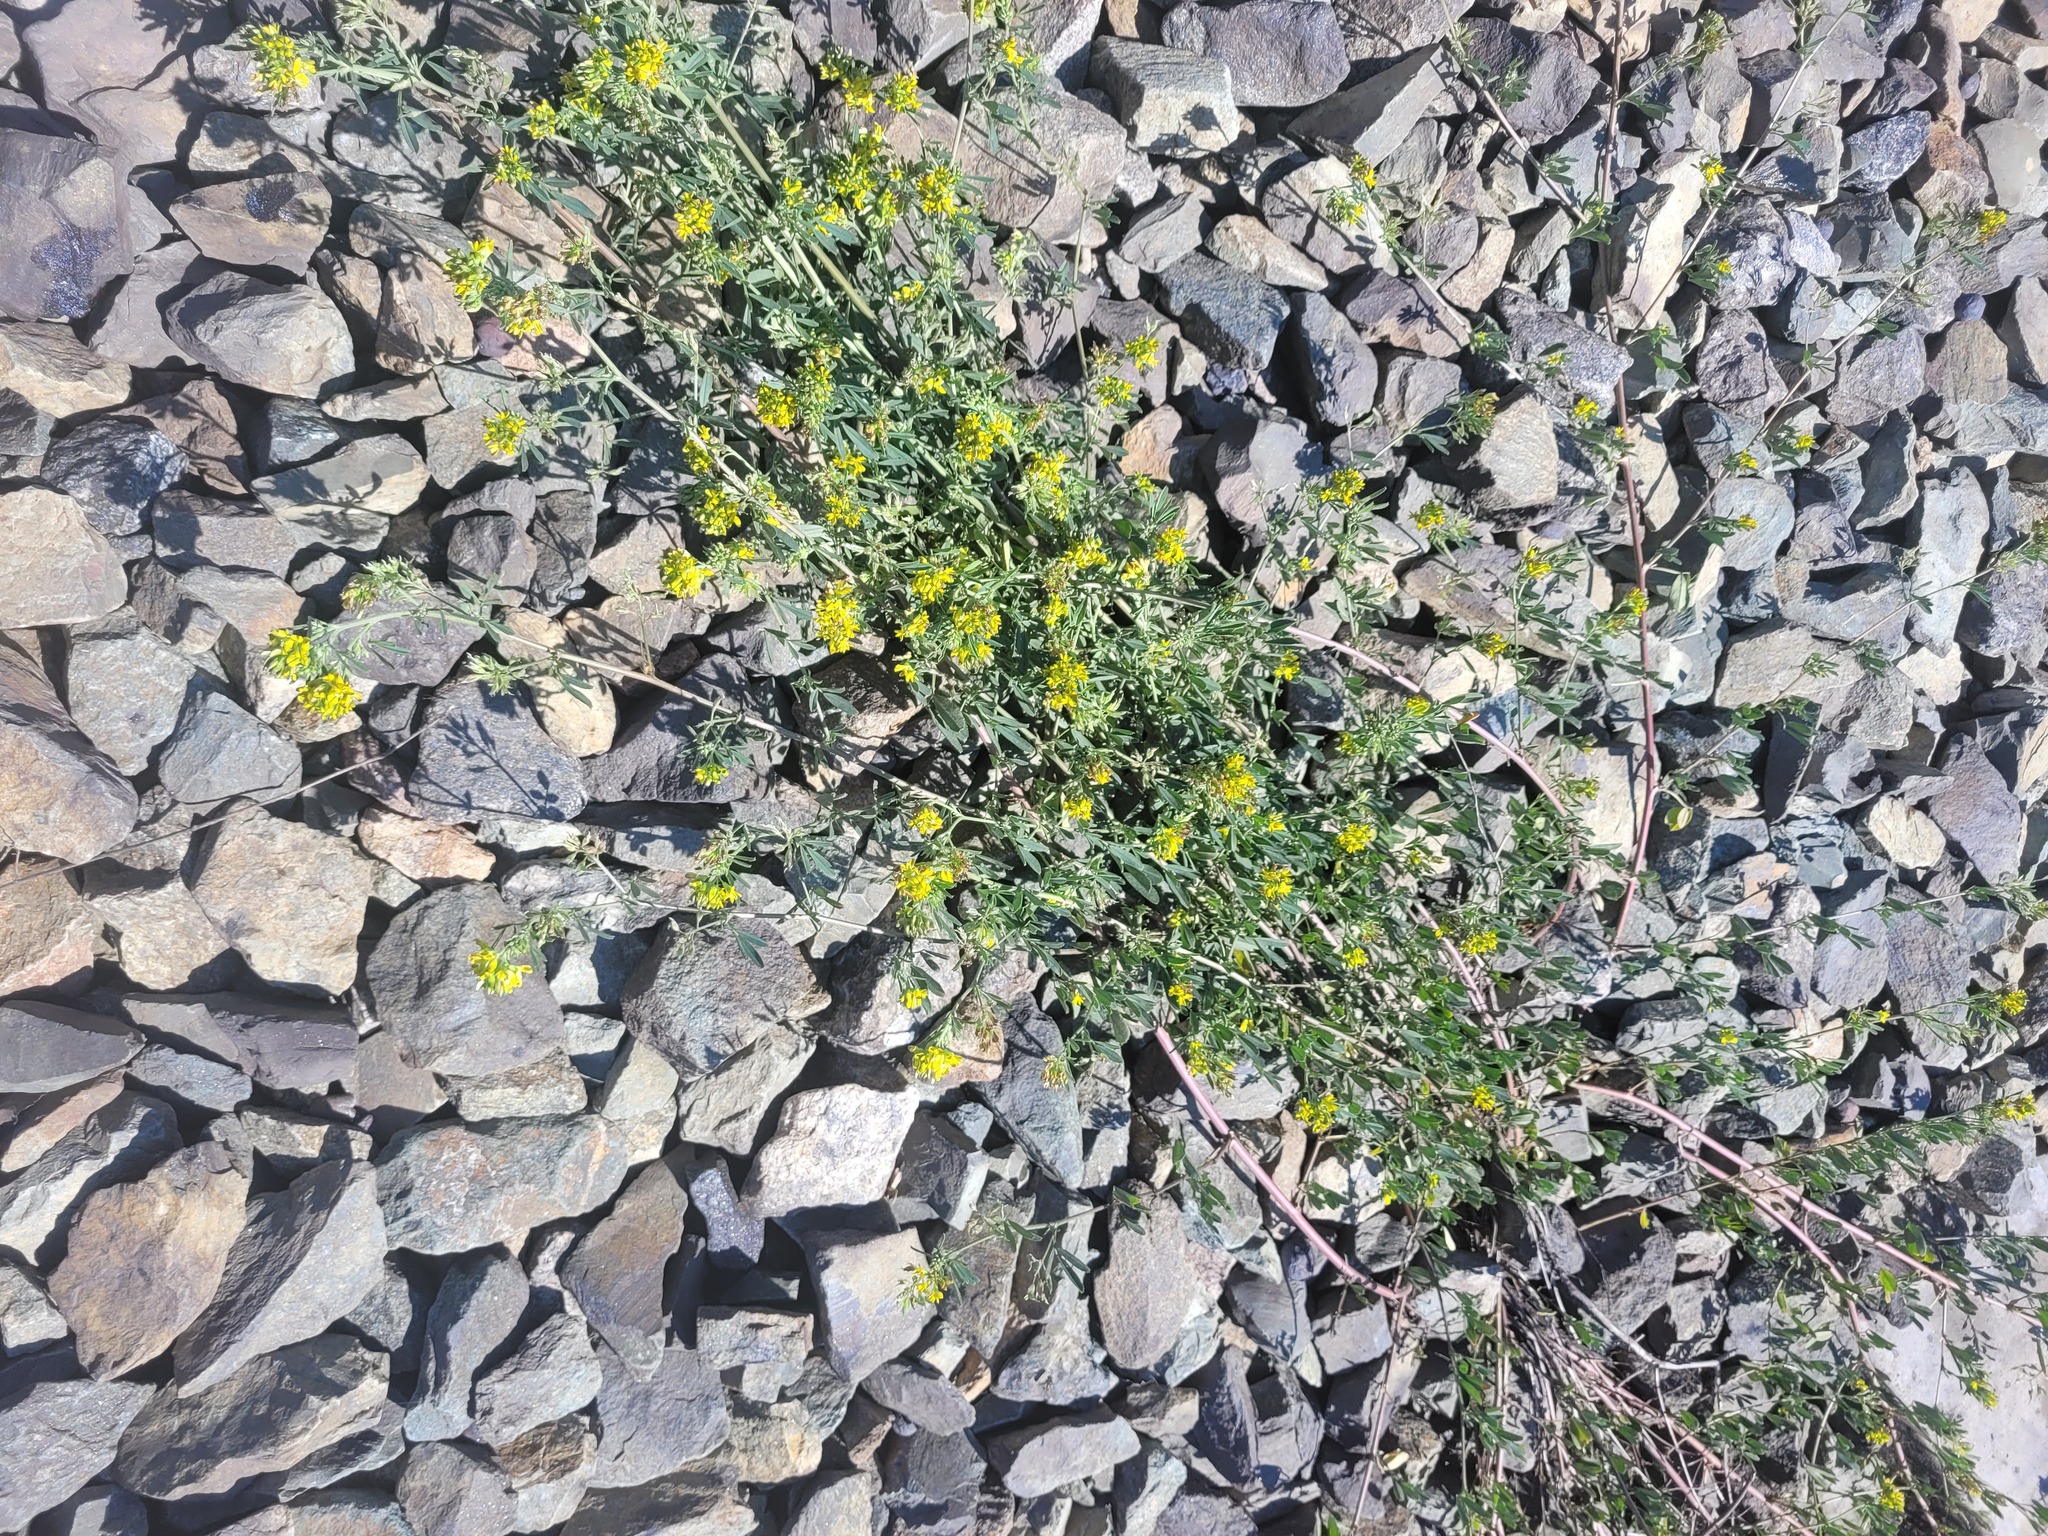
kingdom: Plantae
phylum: Tracheophyta
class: Magnoliopsida
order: Fabales
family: Fabaceae
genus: Medicago
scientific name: Medicago varia
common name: Sand lucerne
